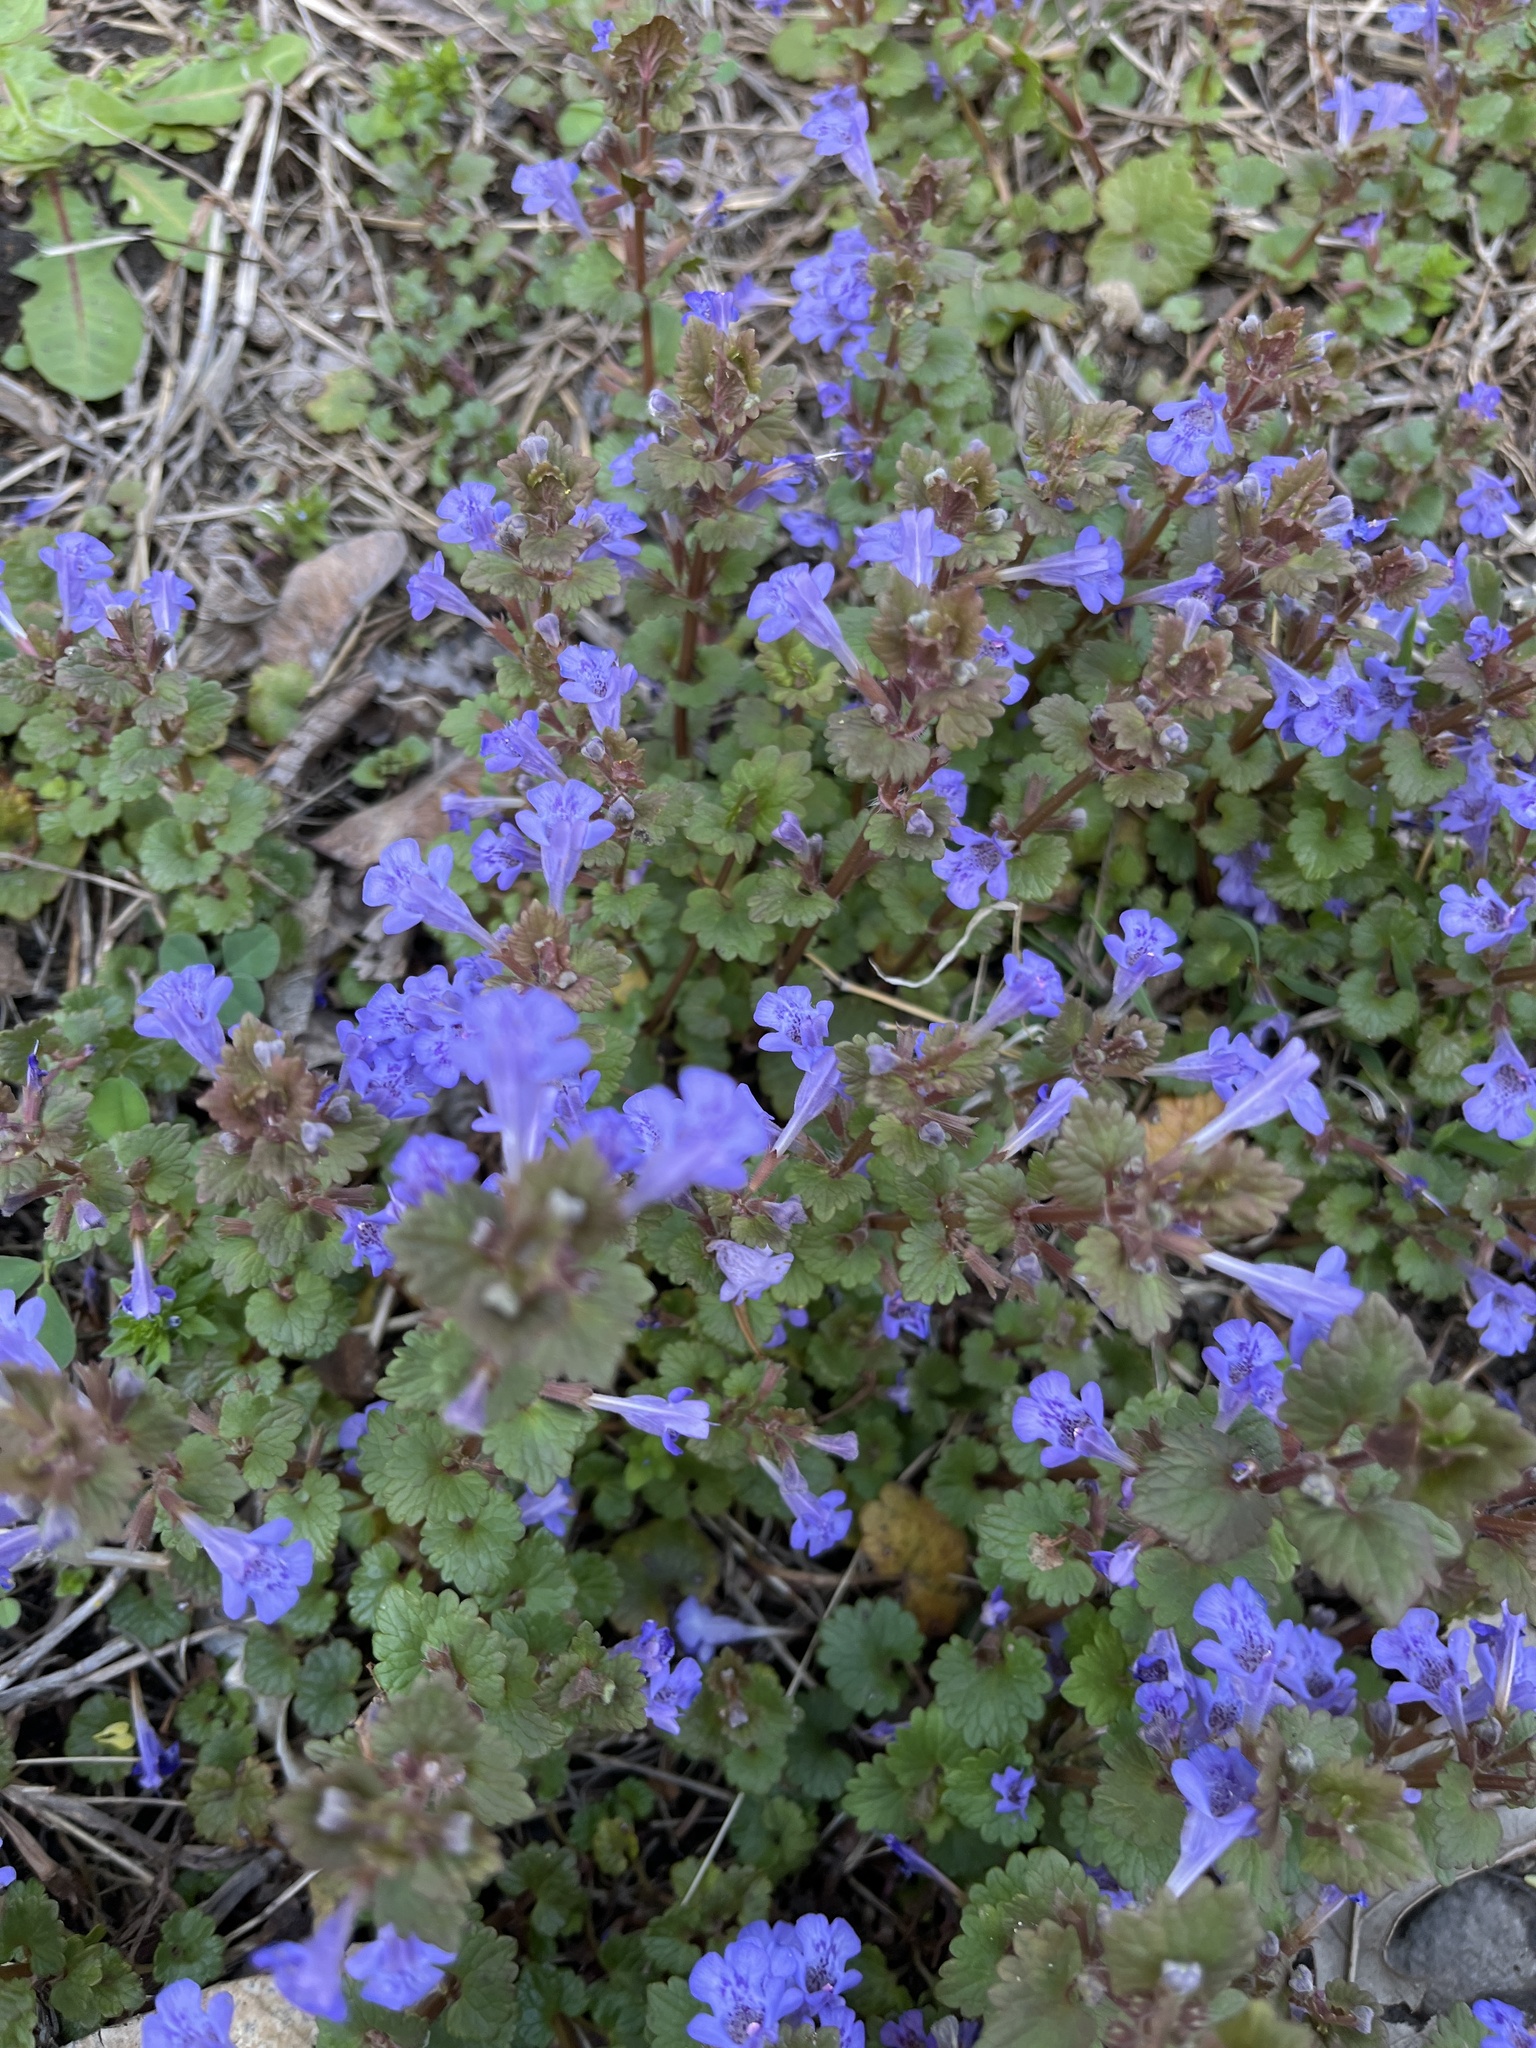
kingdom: Plantae
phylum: Tracheophyta
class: Magnoliopsida
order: Lamiales
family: Lamiaceae
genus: Glechoma
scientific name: Glechoma hederacea
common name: Ground ivy
